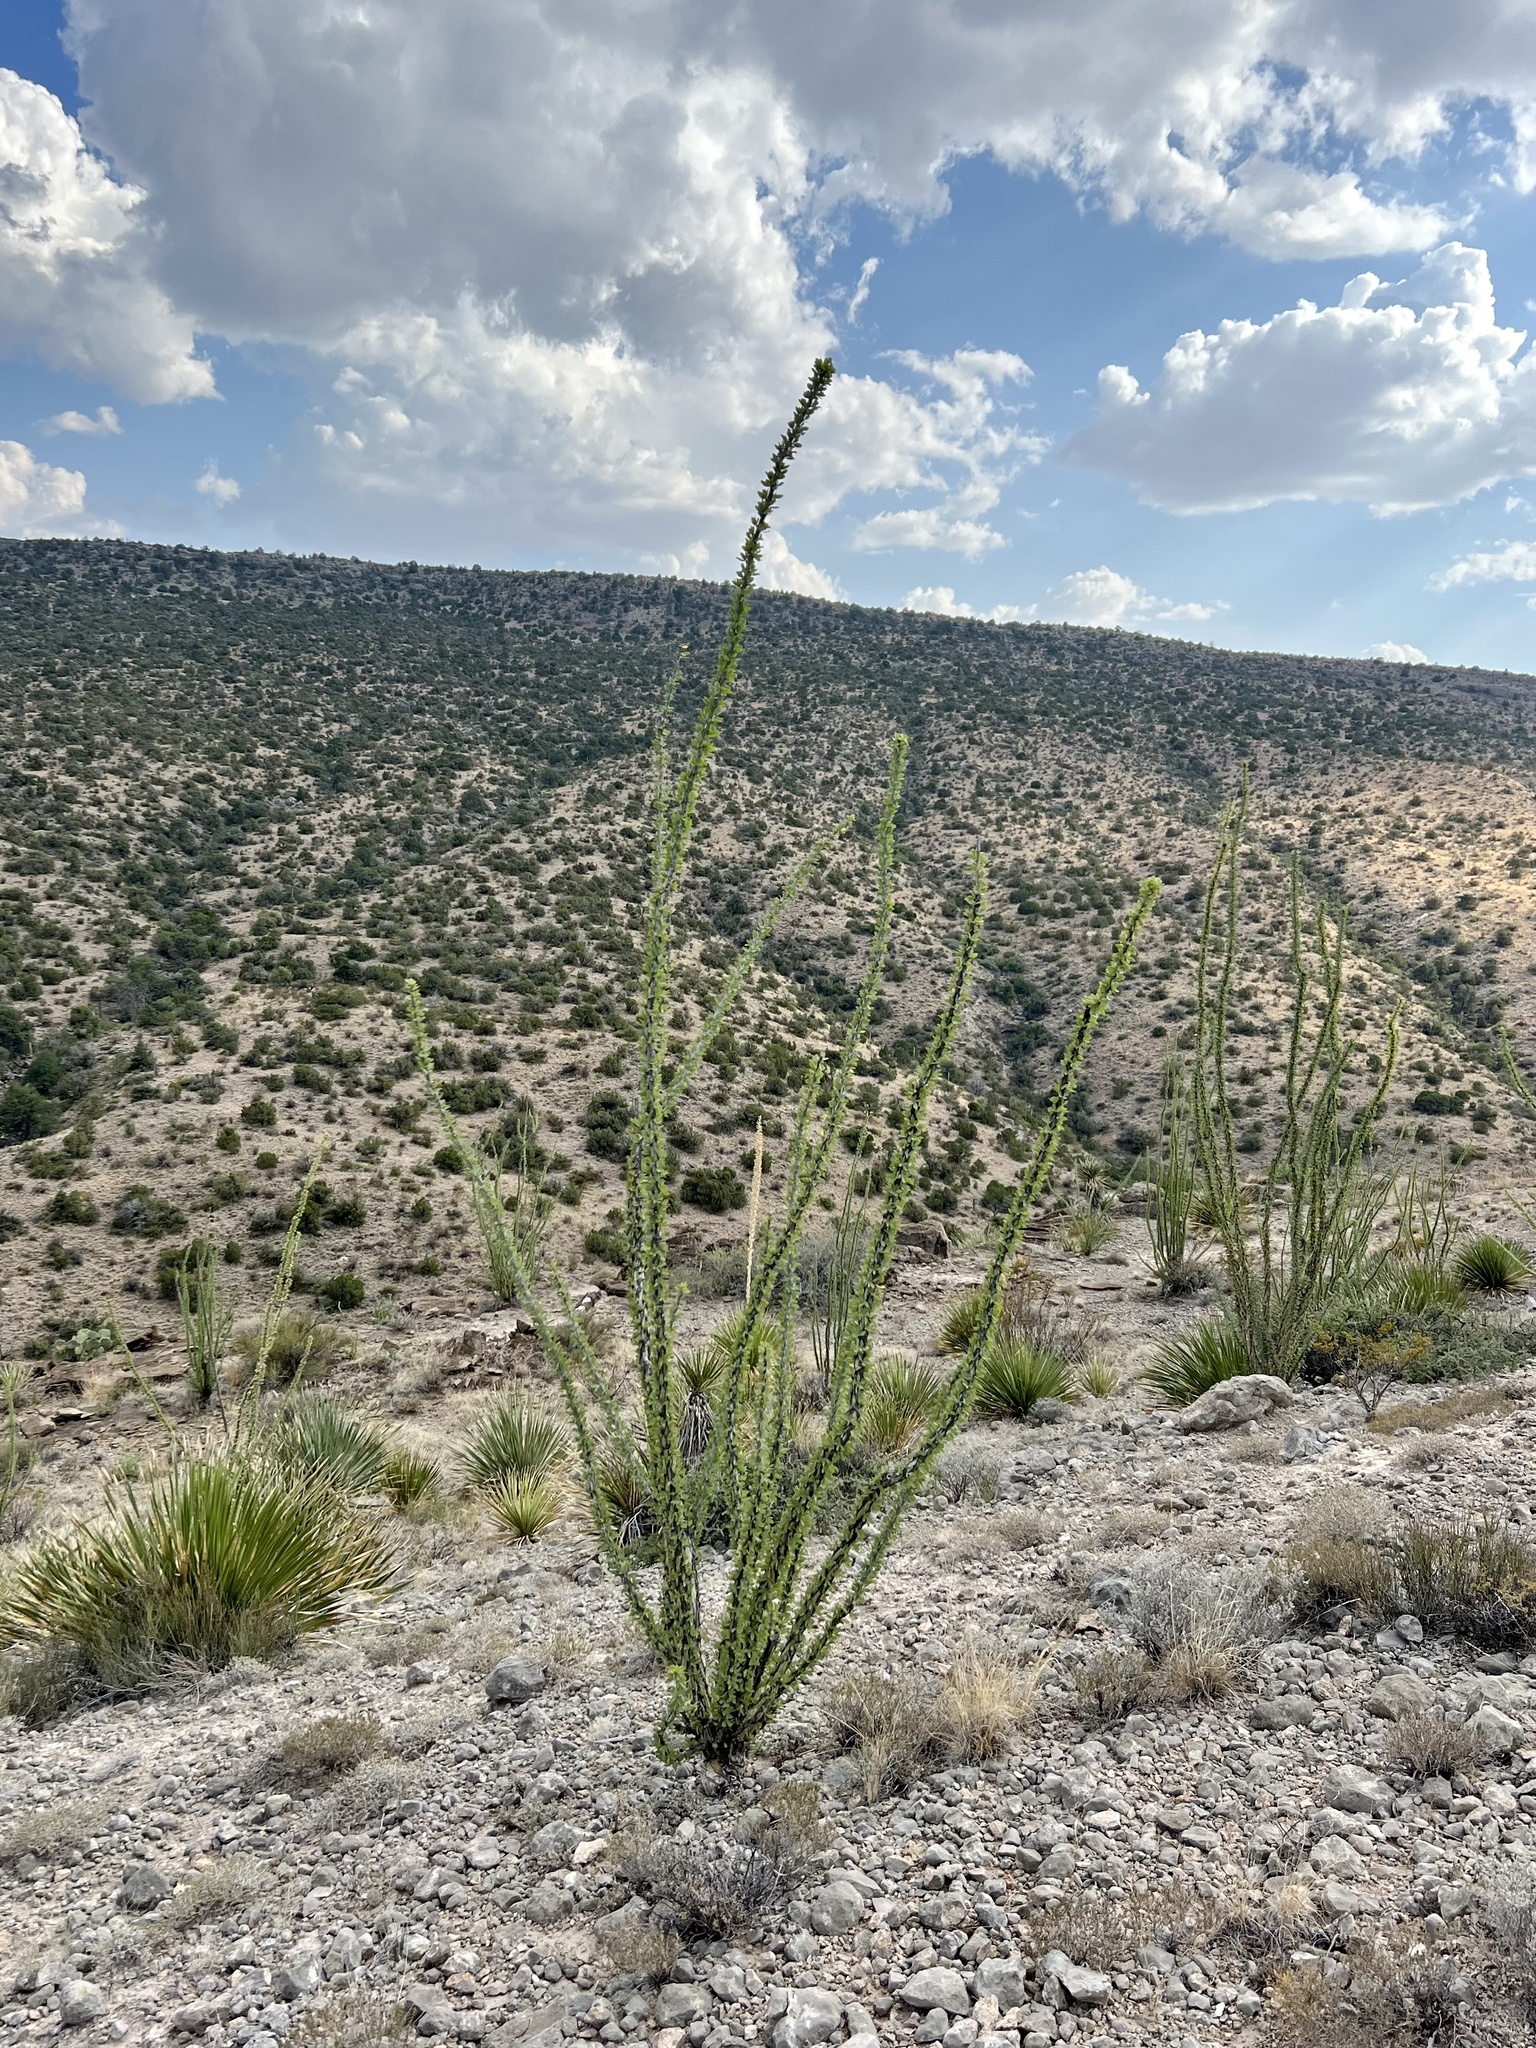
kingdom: Plantae
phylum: Tracheophyta
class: Magnoliopsida
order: Ericales
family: Fouquieriaceae
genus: Fouquieria
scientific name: Fouquieria splendens
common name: Vine-cactus
